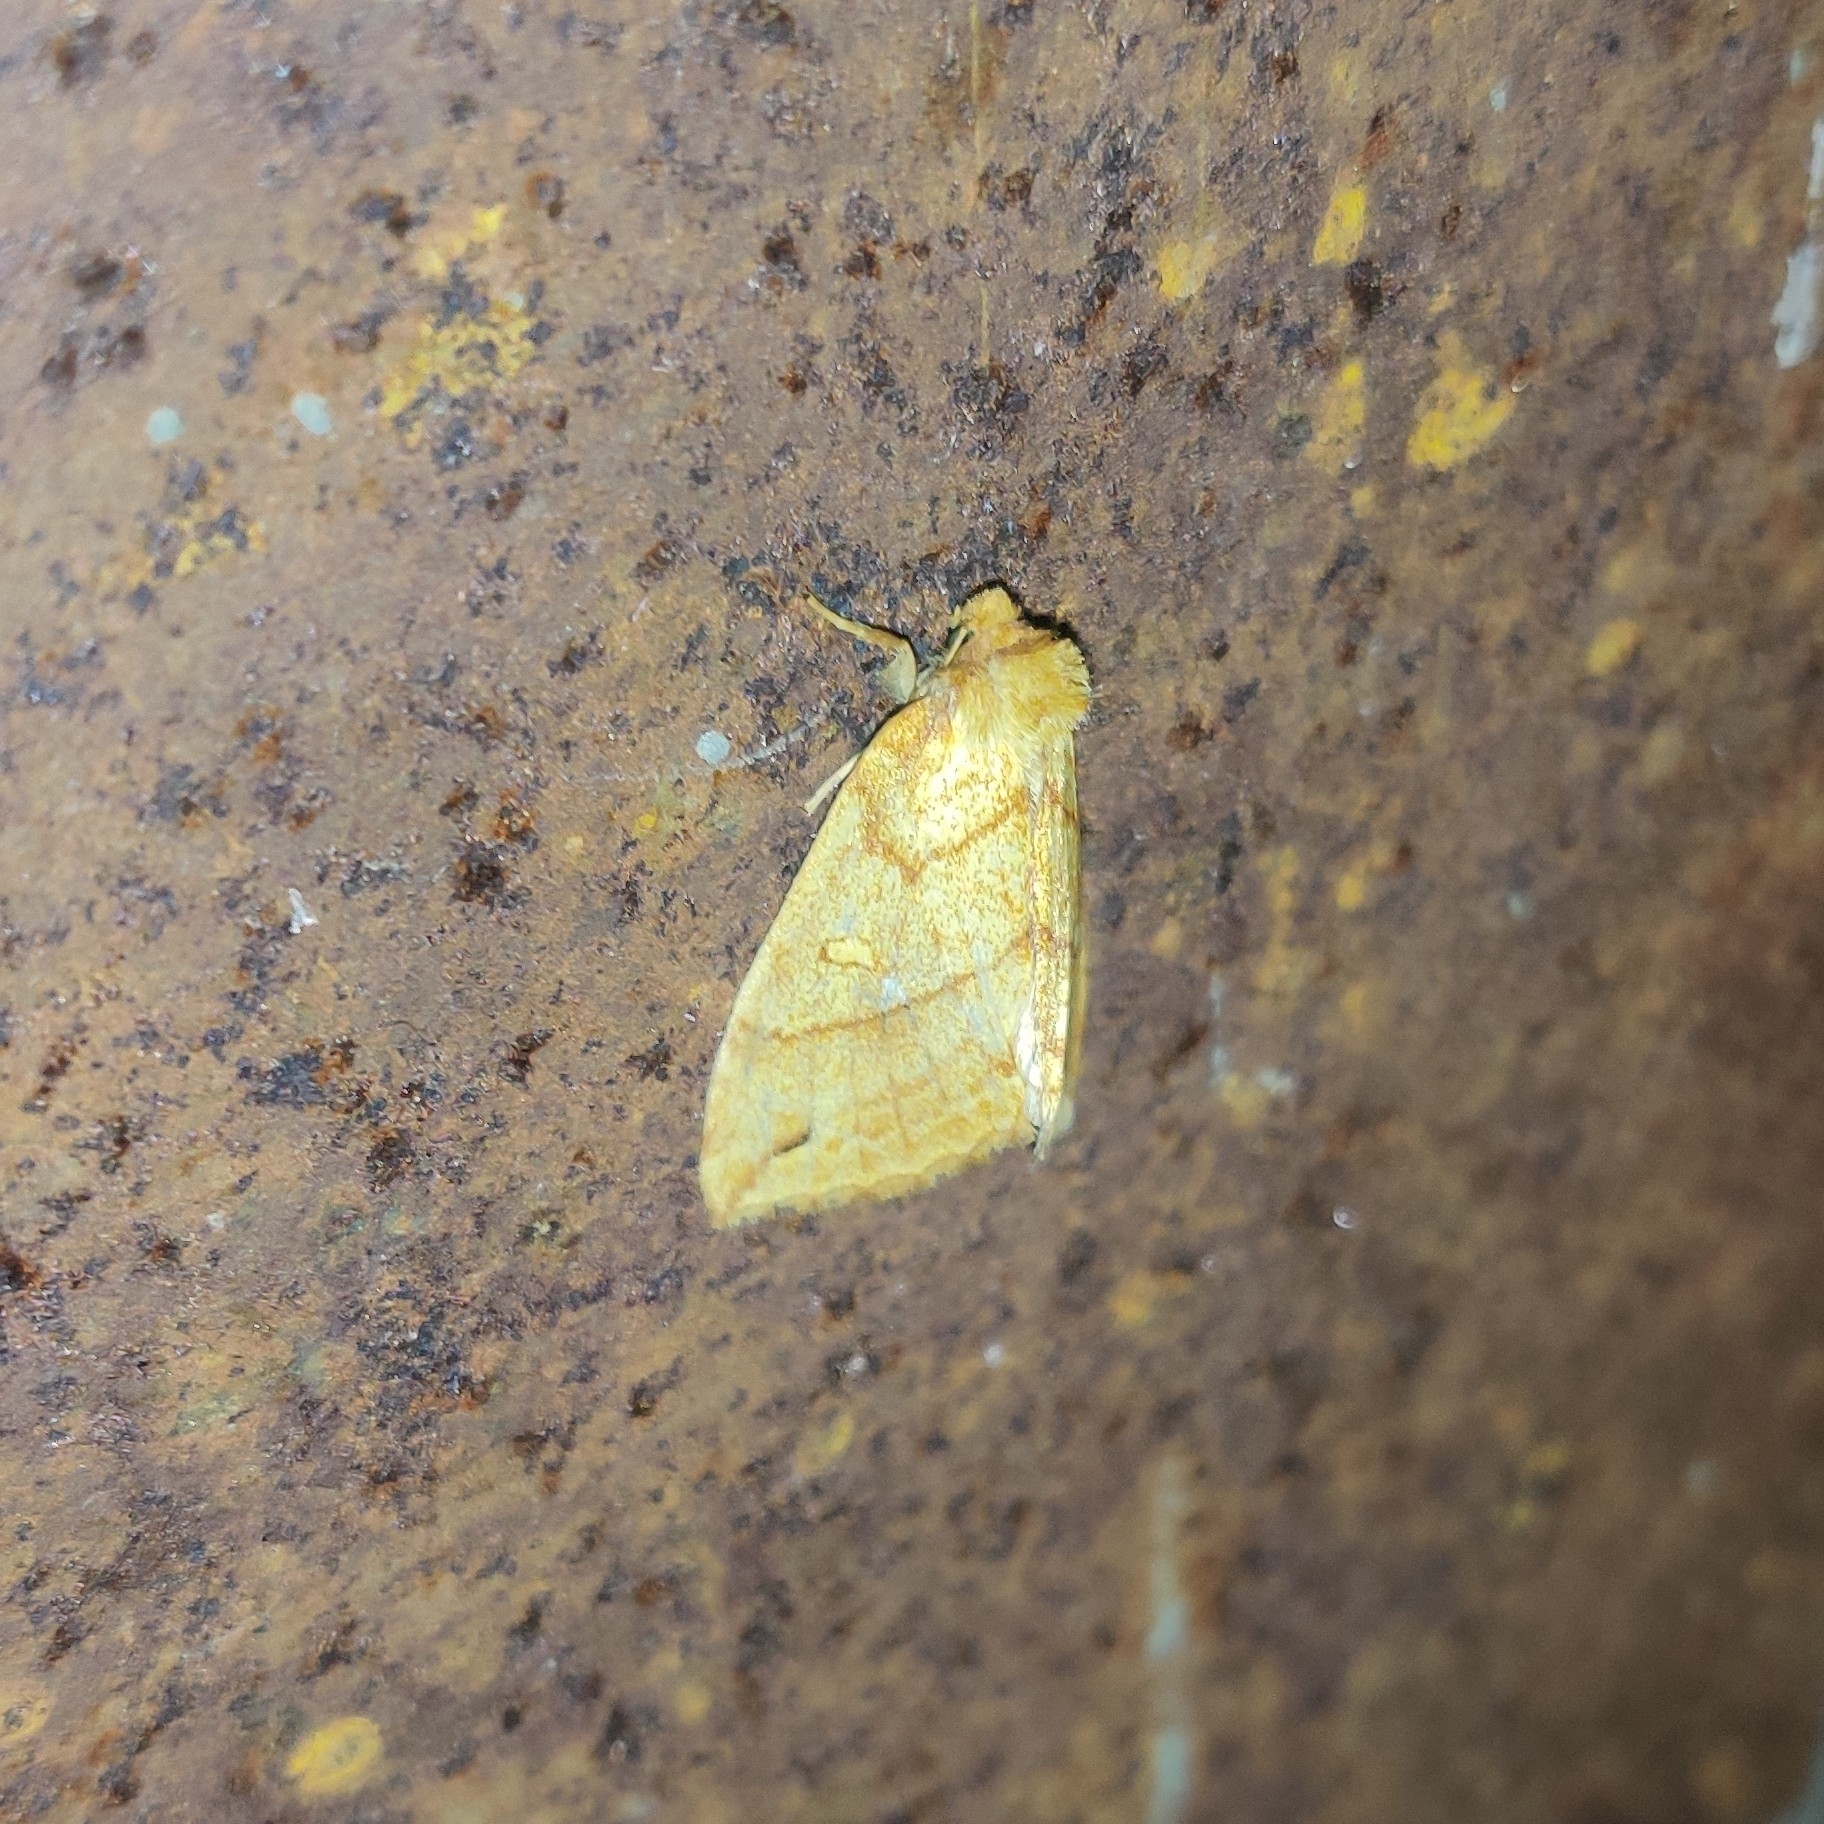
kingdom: Animalia
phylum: Arthropoda
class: Insecta
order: Lepidoptera
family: Noctuidae
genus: Xanthia
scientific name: Xanthia rectilineata
